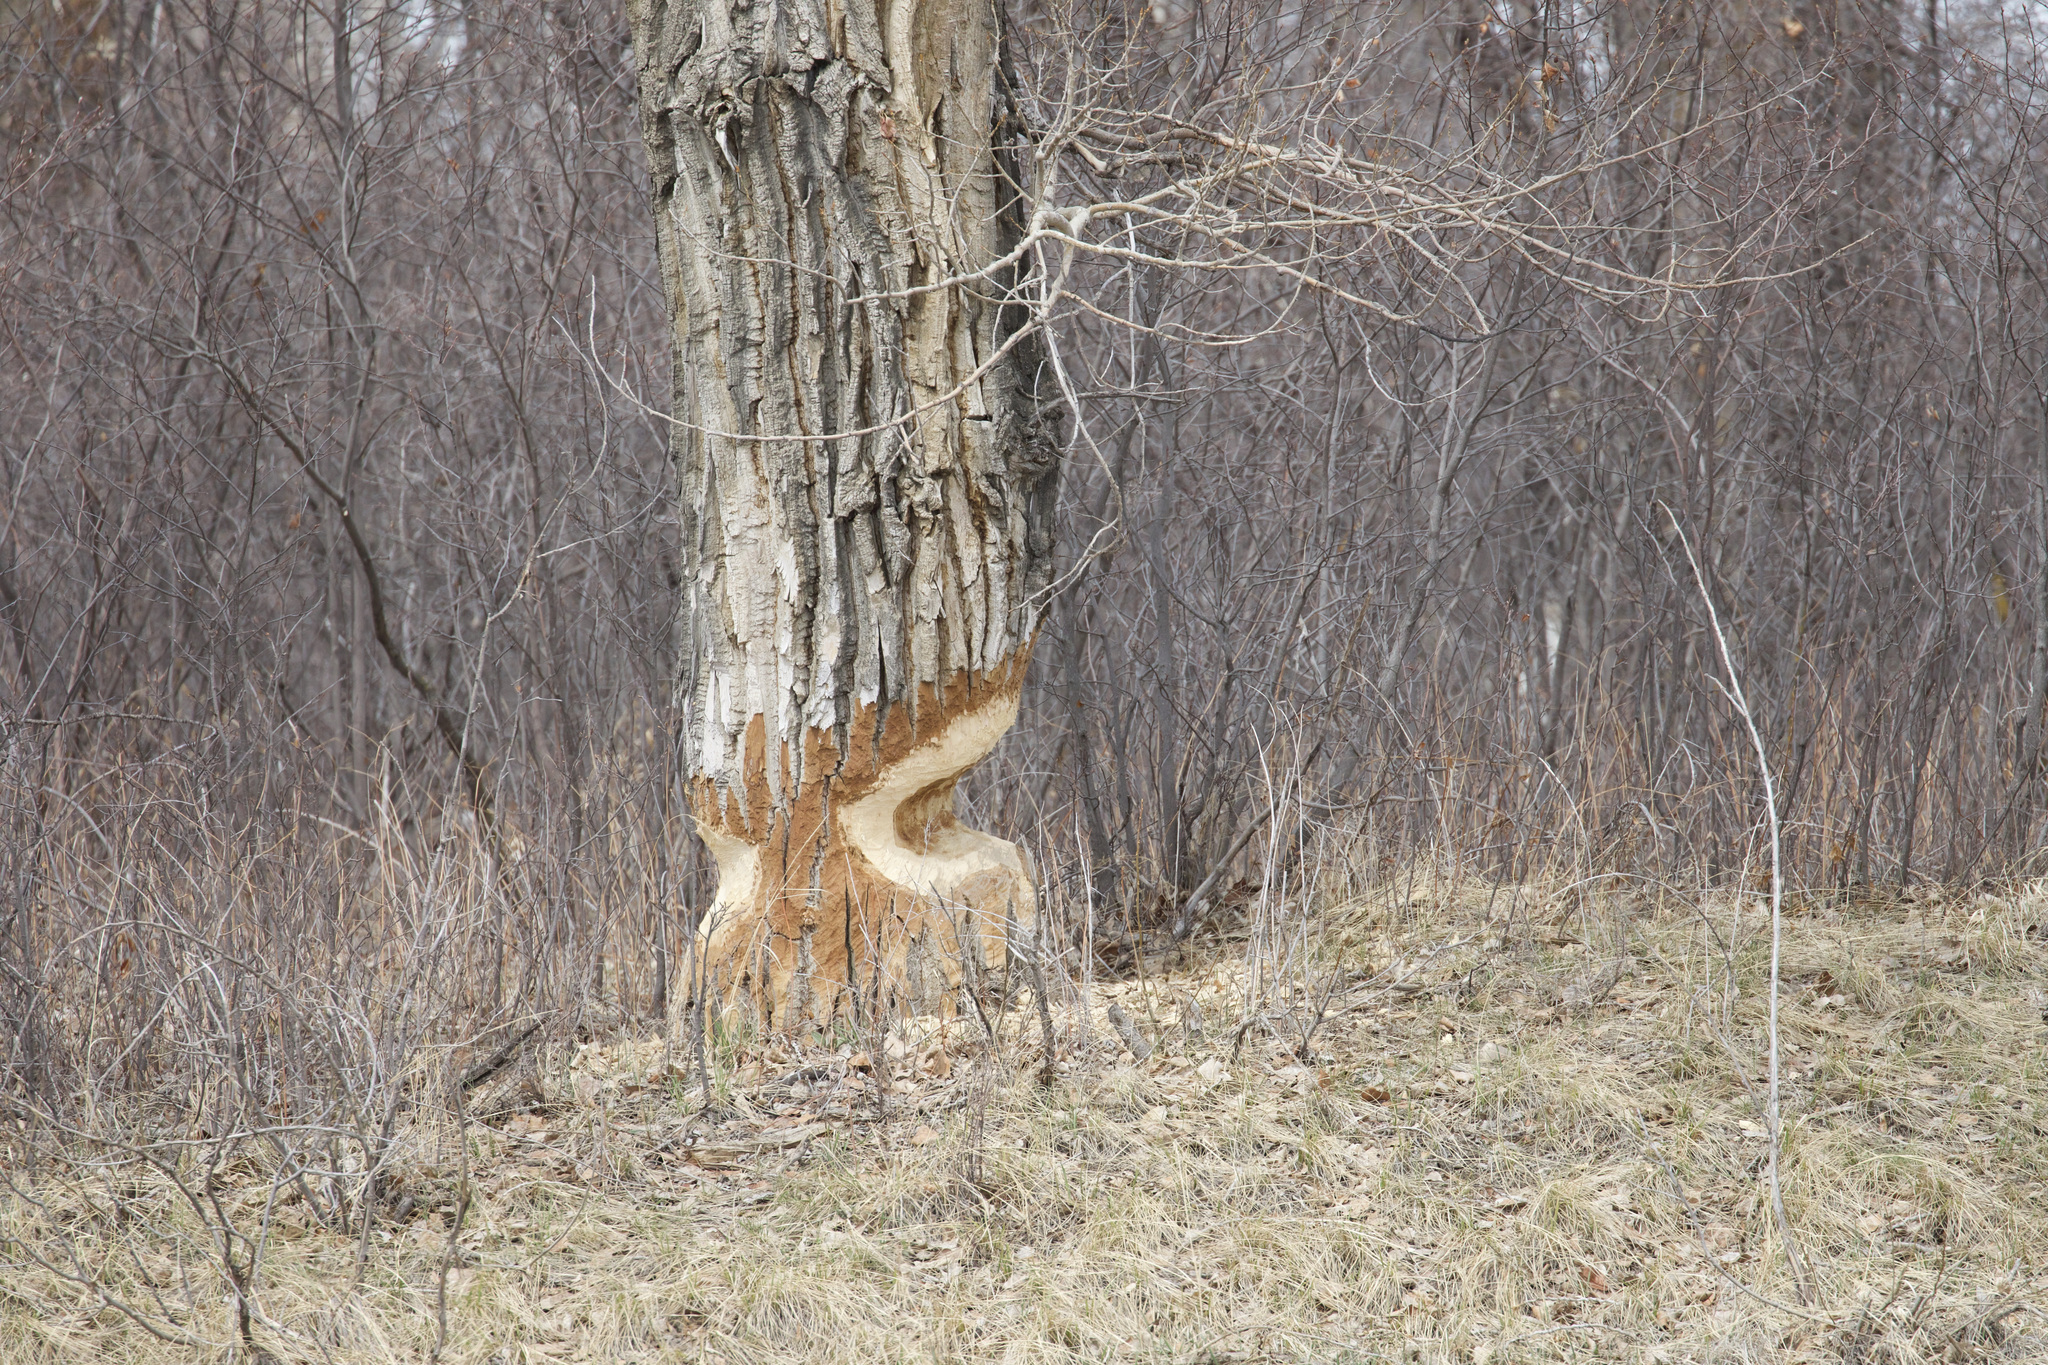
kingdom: Animalia
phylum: Chordata
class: Mammalia
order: Rodentia
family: Castoridae
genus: Castor
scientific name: Castor canadensis
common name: American beaver
